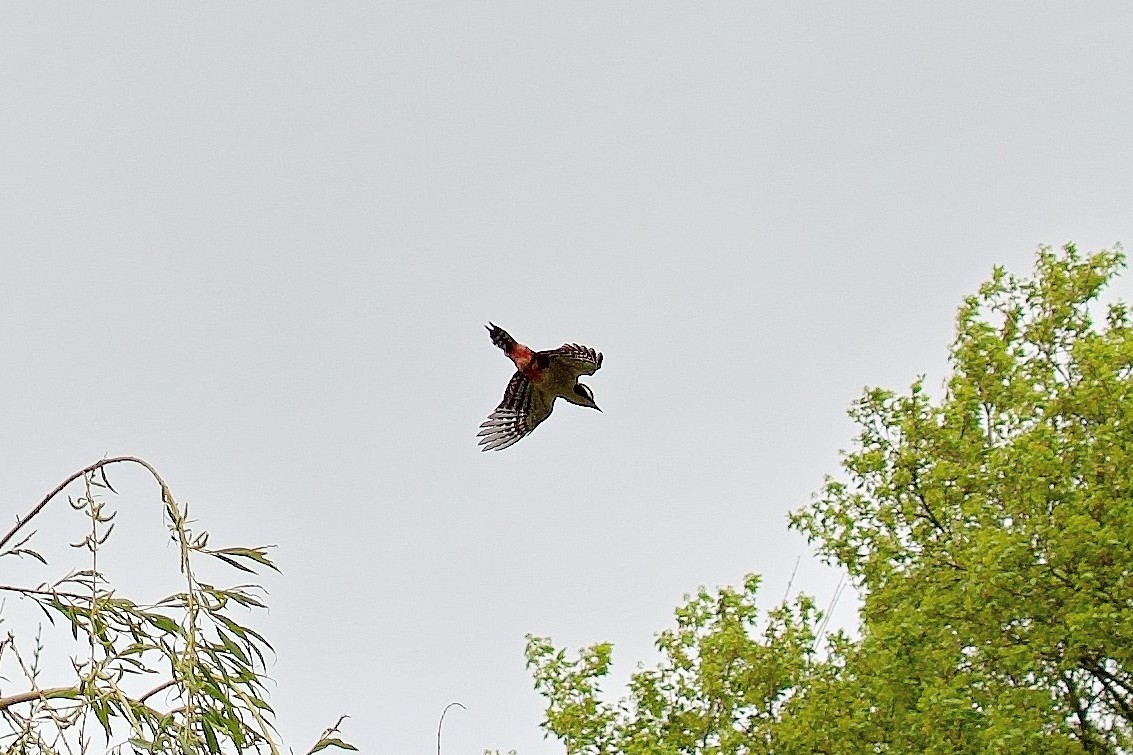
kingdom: Animalia
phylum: Chordata
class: Aves
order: Piciformes
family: Picidae
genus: Dendrocopos
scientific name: Dendrocopos major
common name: Great spotted woodpecker
